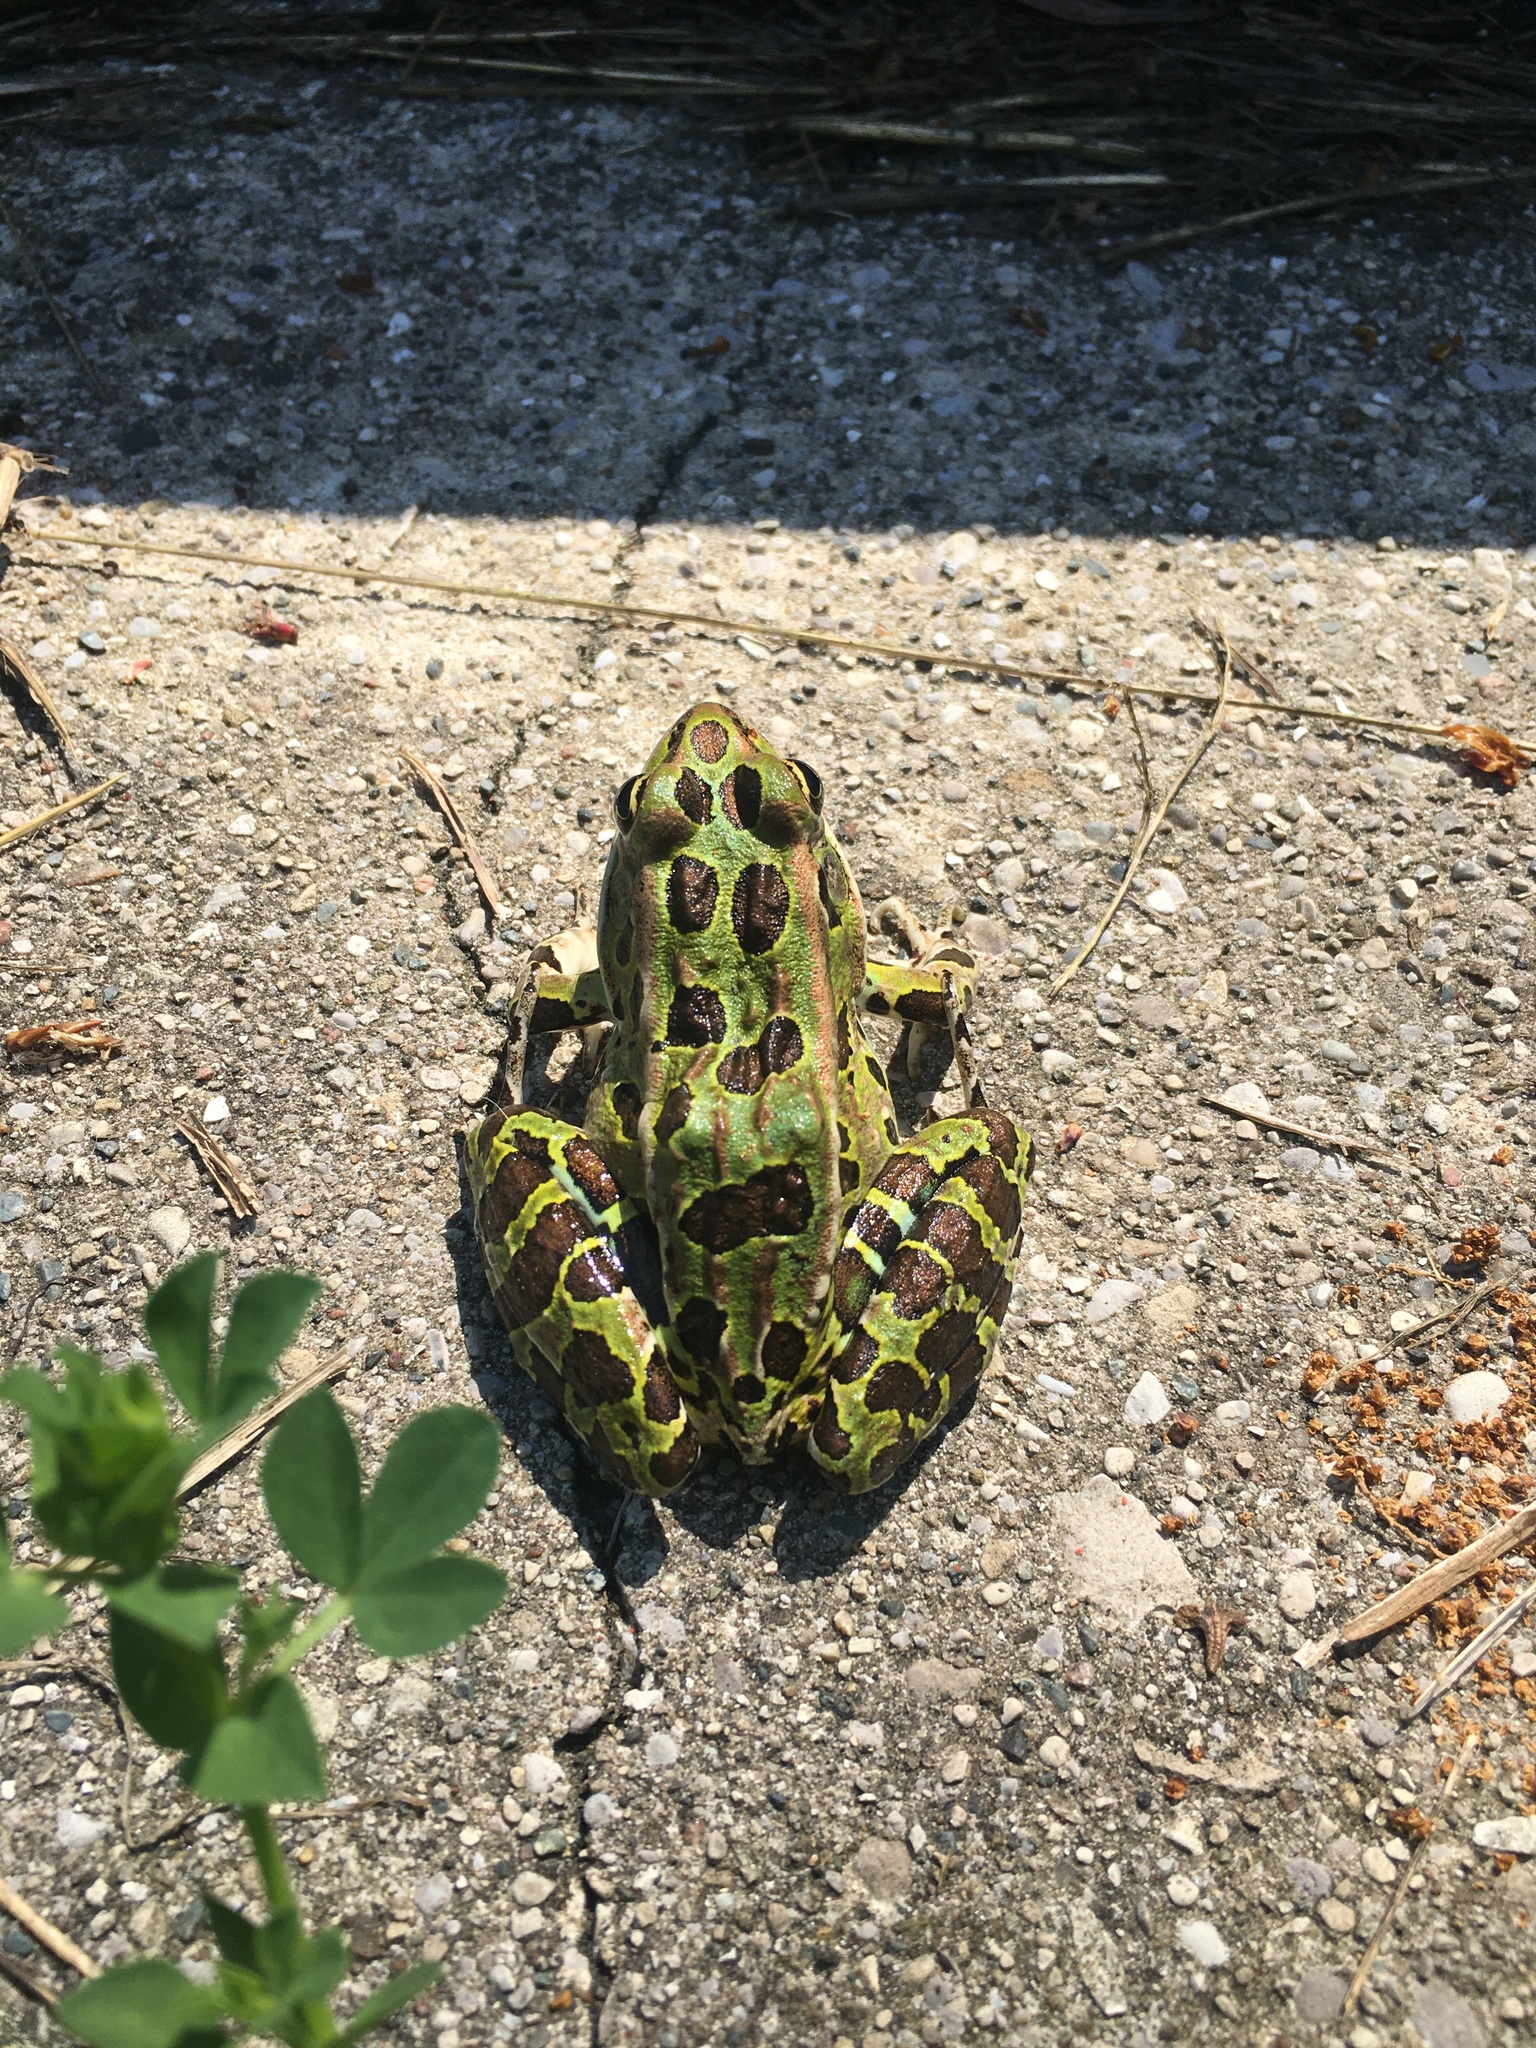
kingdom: Animalia
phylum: Chordata
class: Amphibia
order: Anura
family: Ranidae
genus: Lithobates
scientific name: Lithobates pipiens
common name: Northern leopard frog
